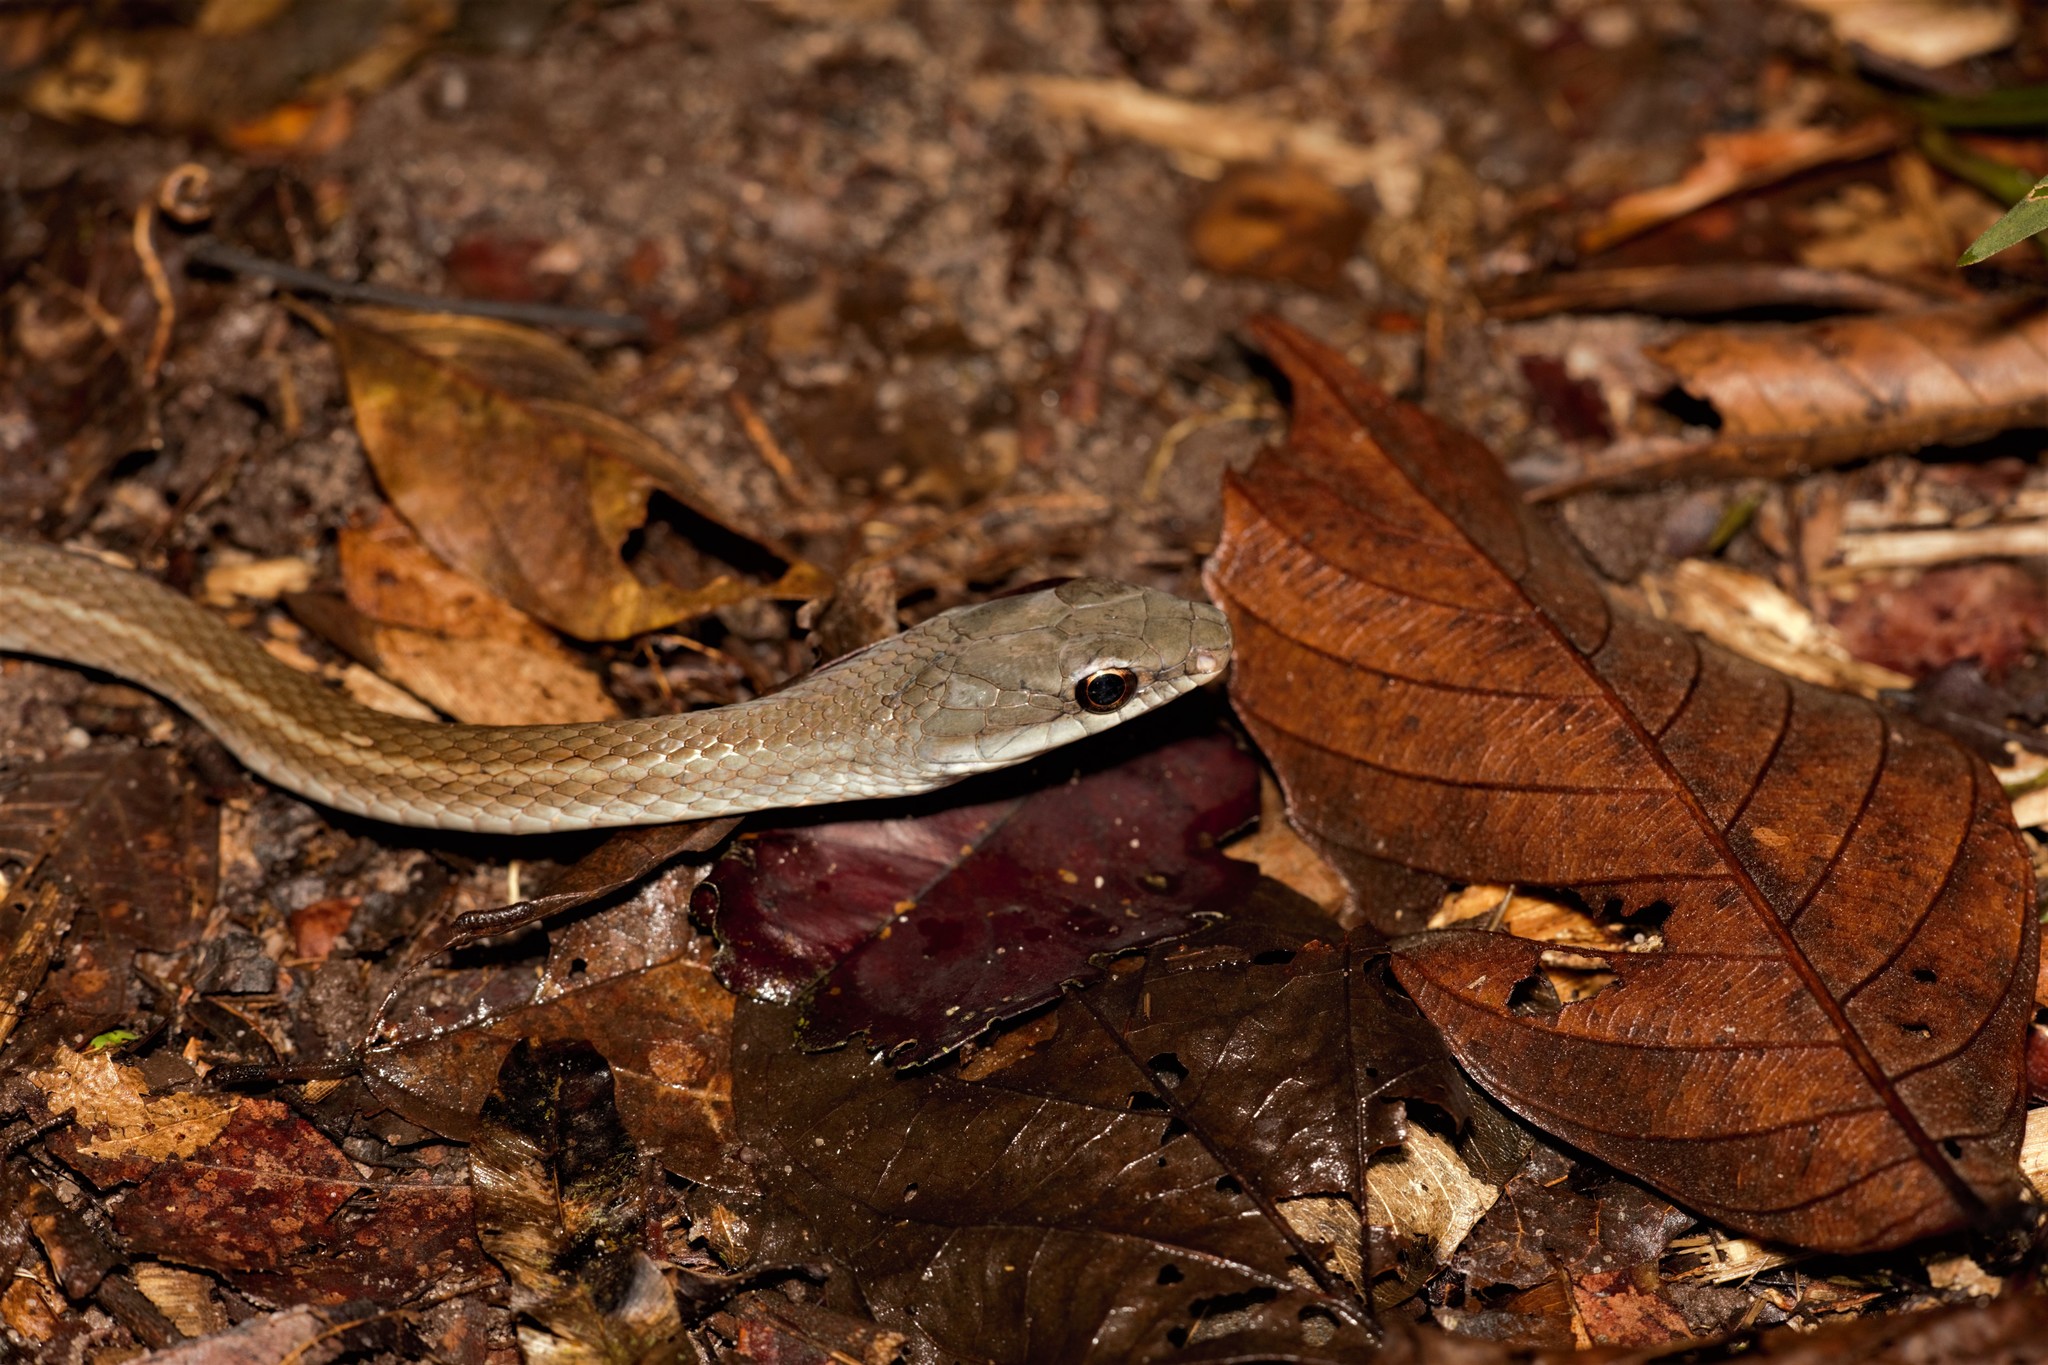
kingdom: Animalia
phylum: Chordata
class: Squamata
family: Colubridae
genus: Mastigodryas
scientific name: Mastigodryas boddaerti
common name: Boddaert's tropical racer
